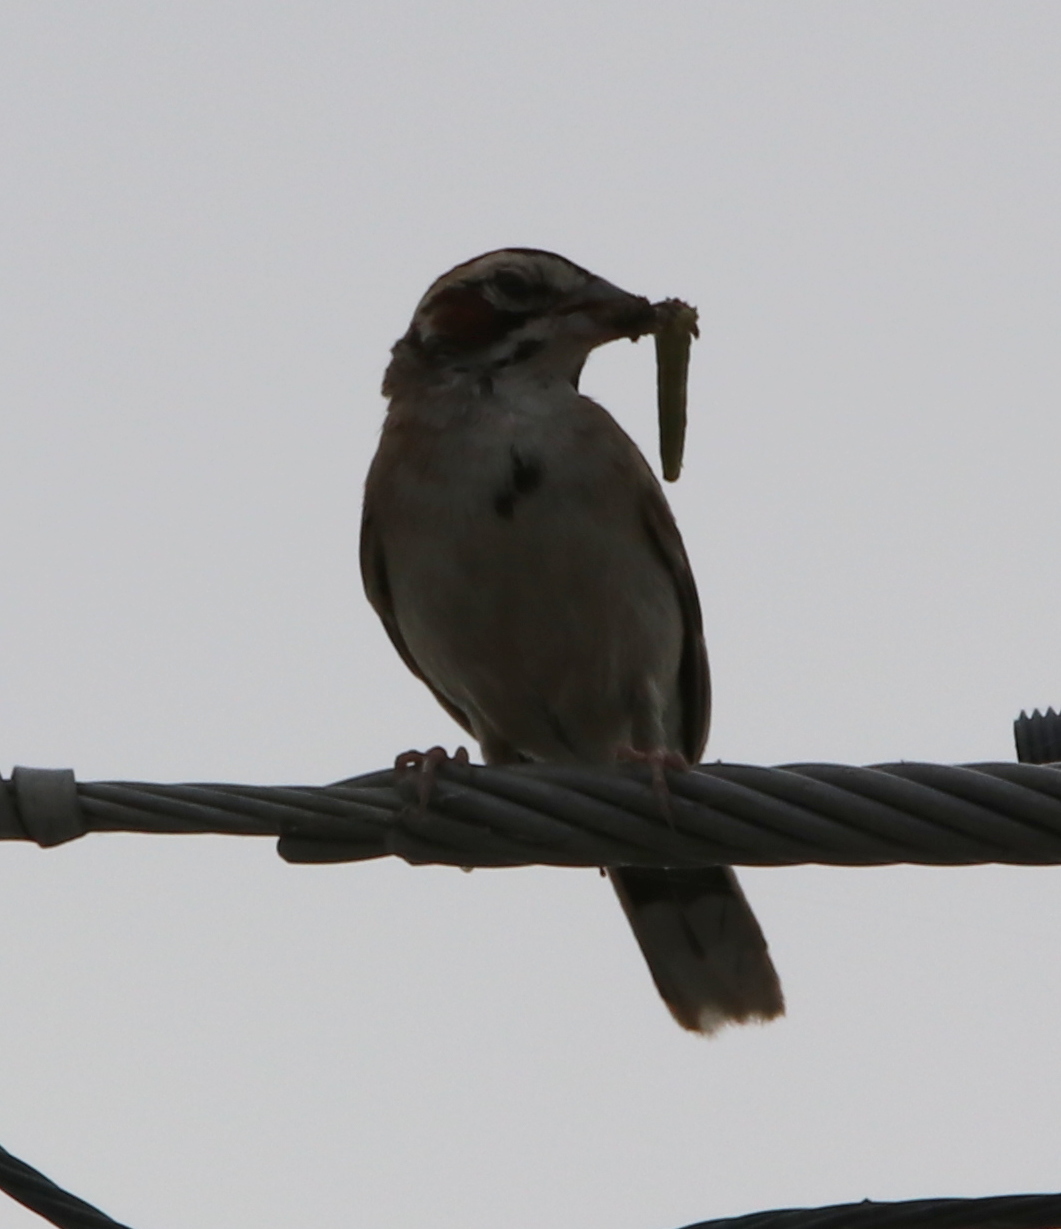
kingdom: Animalia
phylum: Chordata
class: Aves
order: Passeriformes
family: Passerellidae
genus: Chondestes
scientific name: Chondestes grammacus
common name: Lark sparrow
